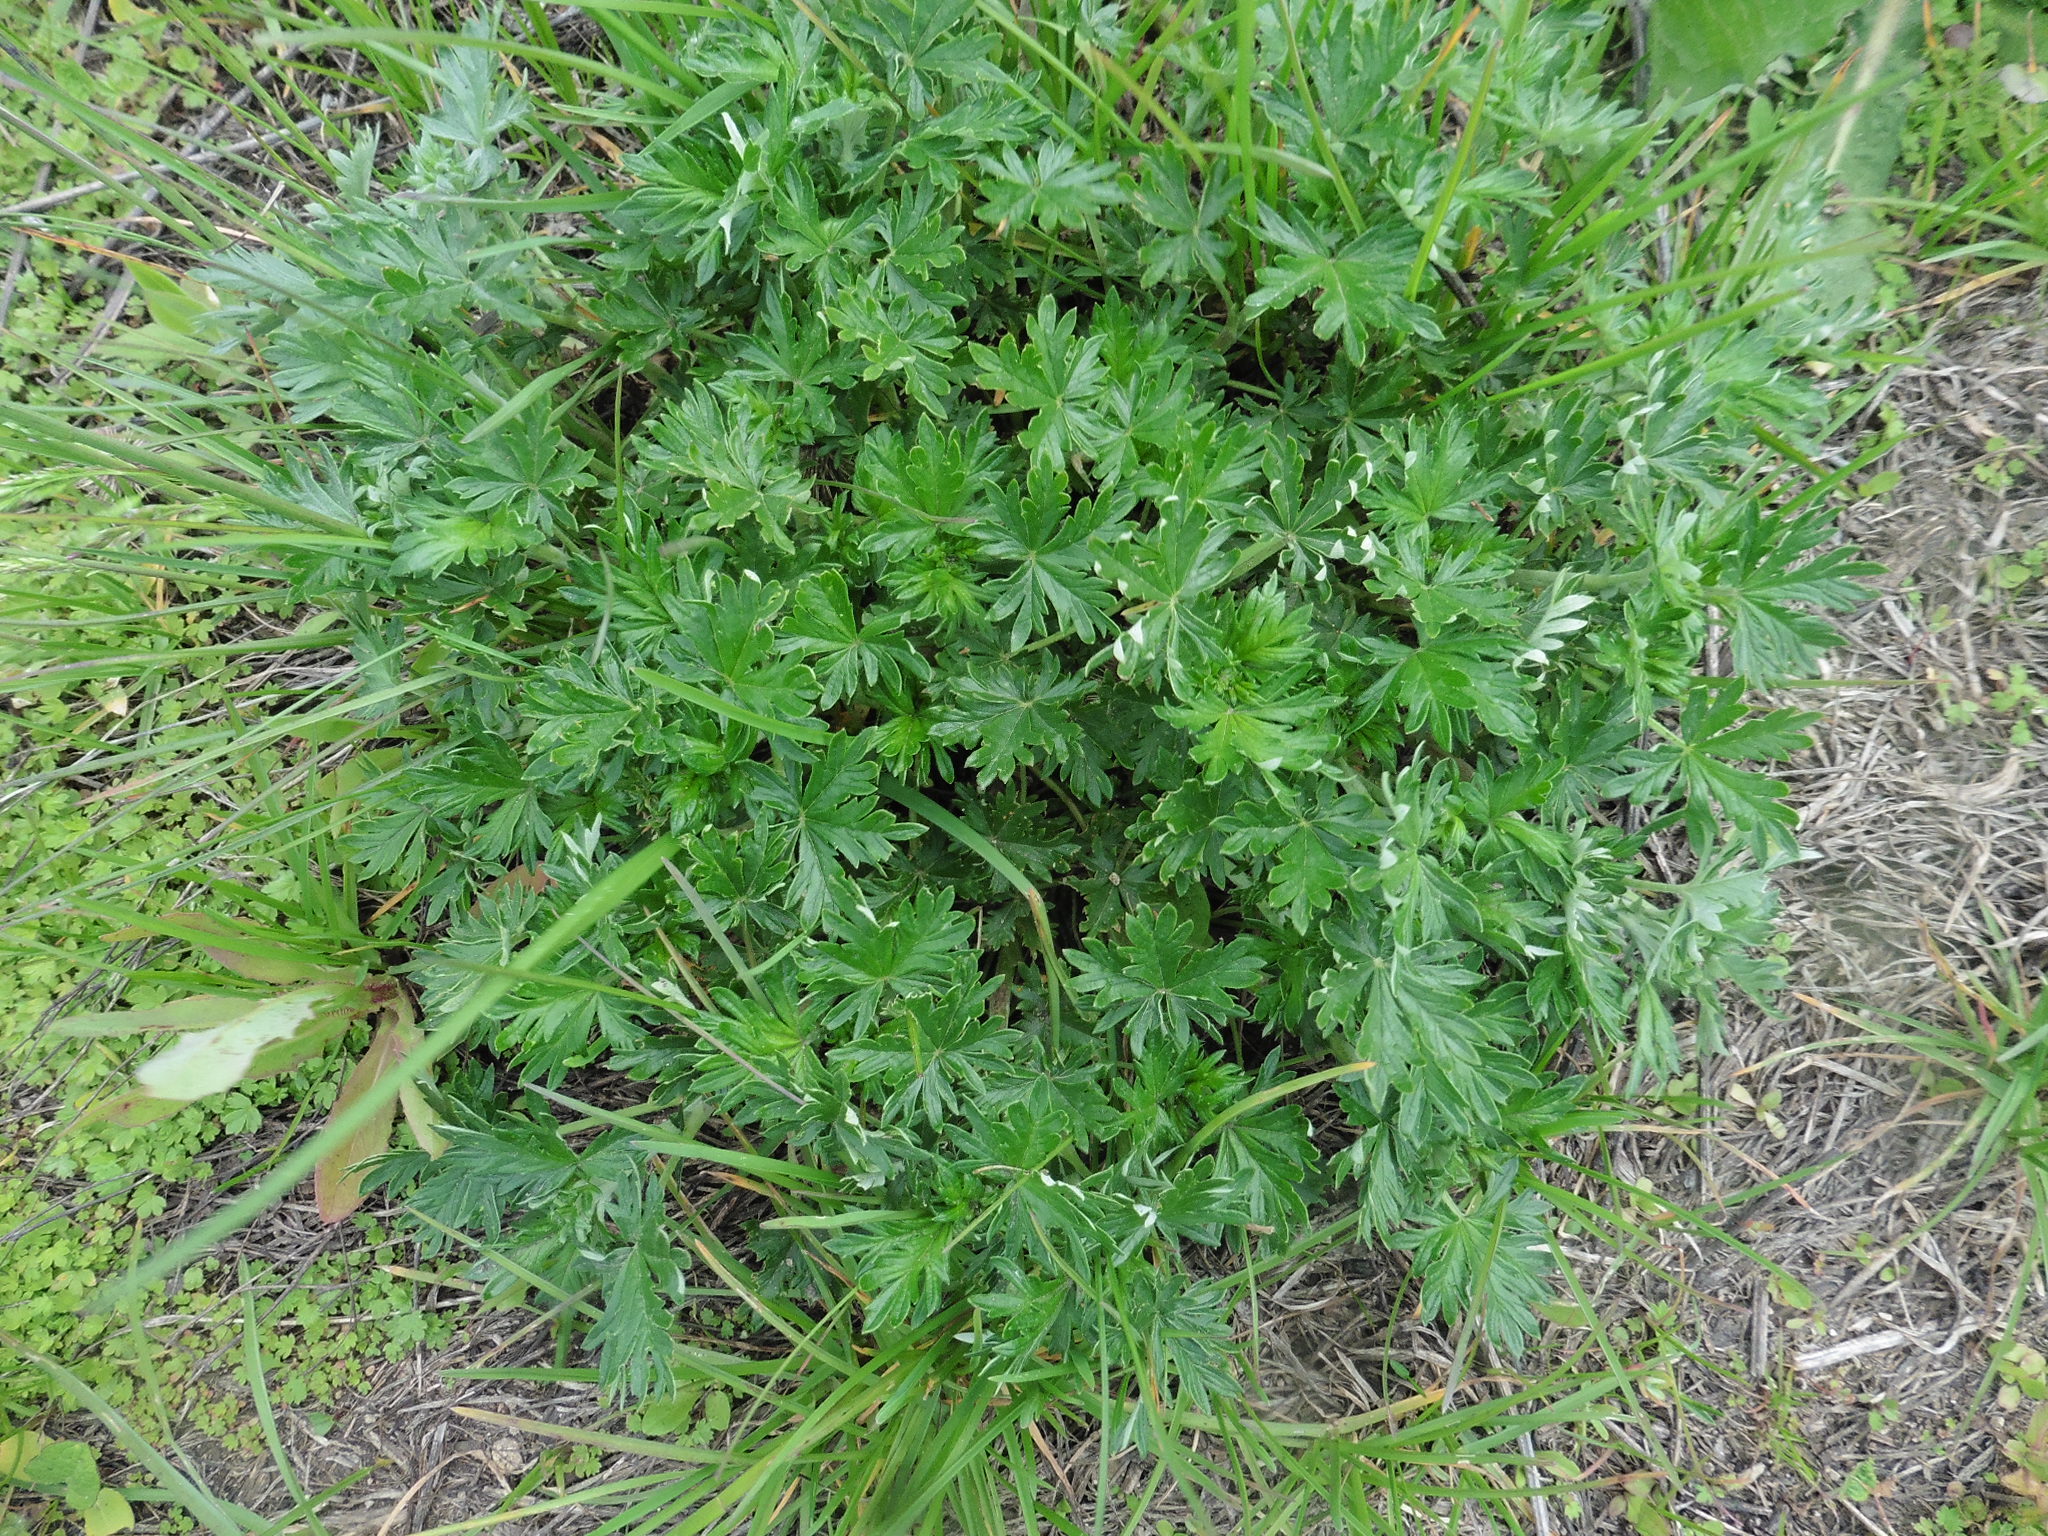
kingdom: Plantae
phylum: Tracheophyta
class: Magnoliopsida
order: Rosales
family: Rosaceae
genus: Potentilla
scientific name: Potentilla argentea
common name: Hoary cinquefoil
